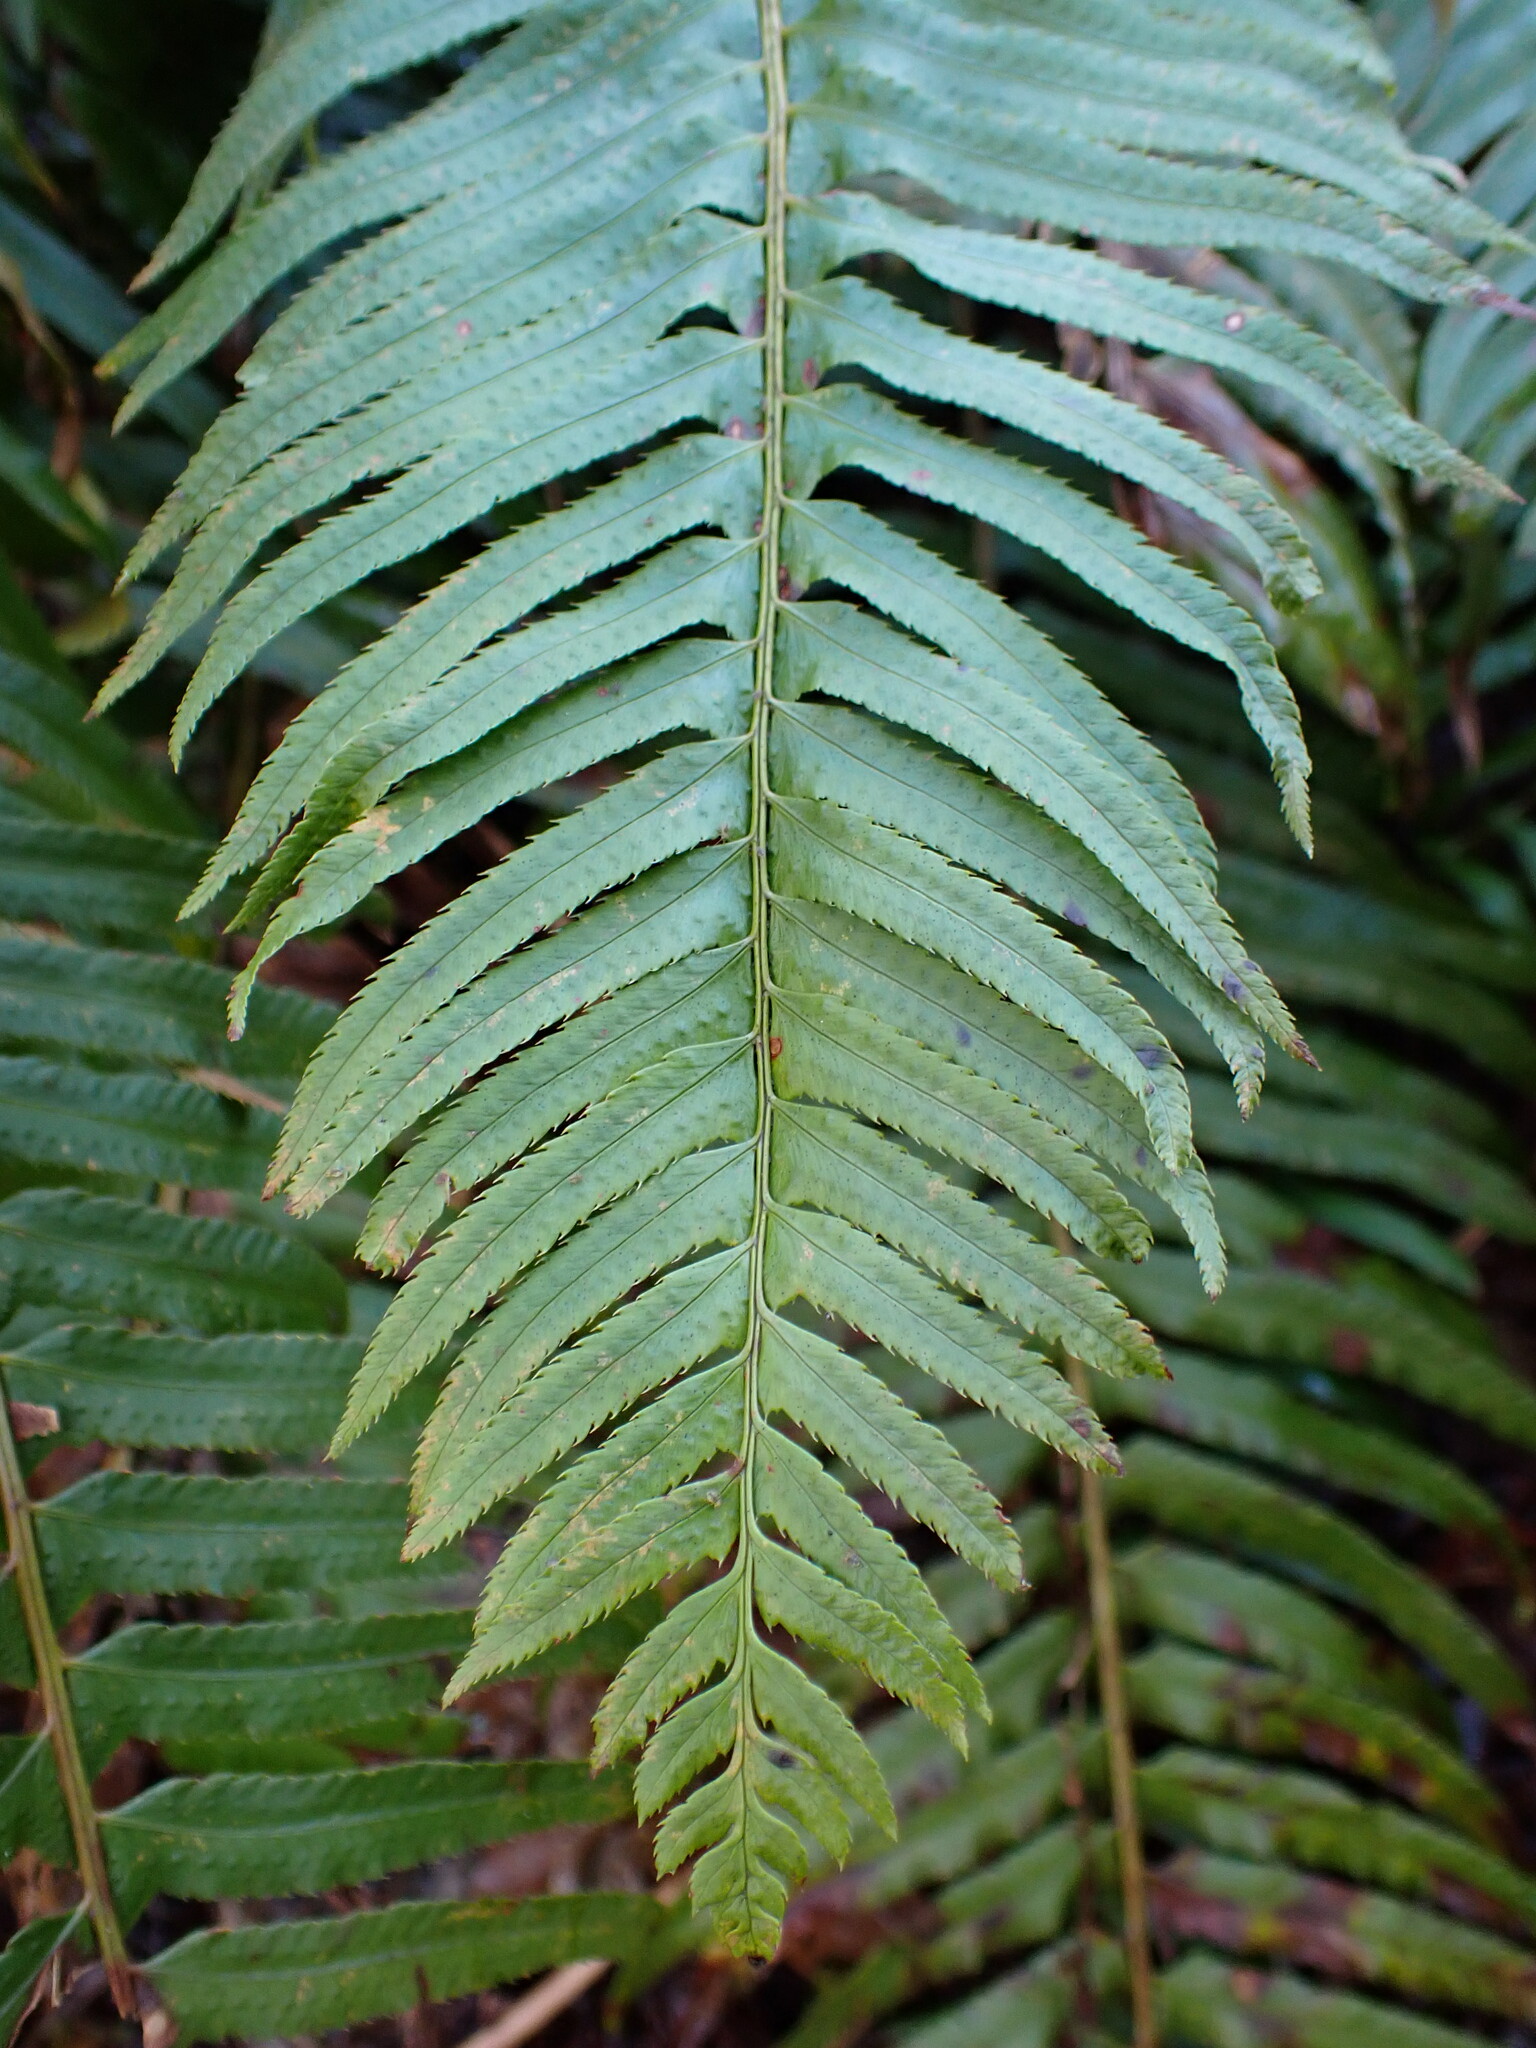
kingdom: Plantae
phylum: Tracheophyta
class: Polypodiopsida
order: Polypodiales
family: Dryopteridaceae
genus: Polystichum
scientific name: Polystichum munitum
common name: Western sword-fern
